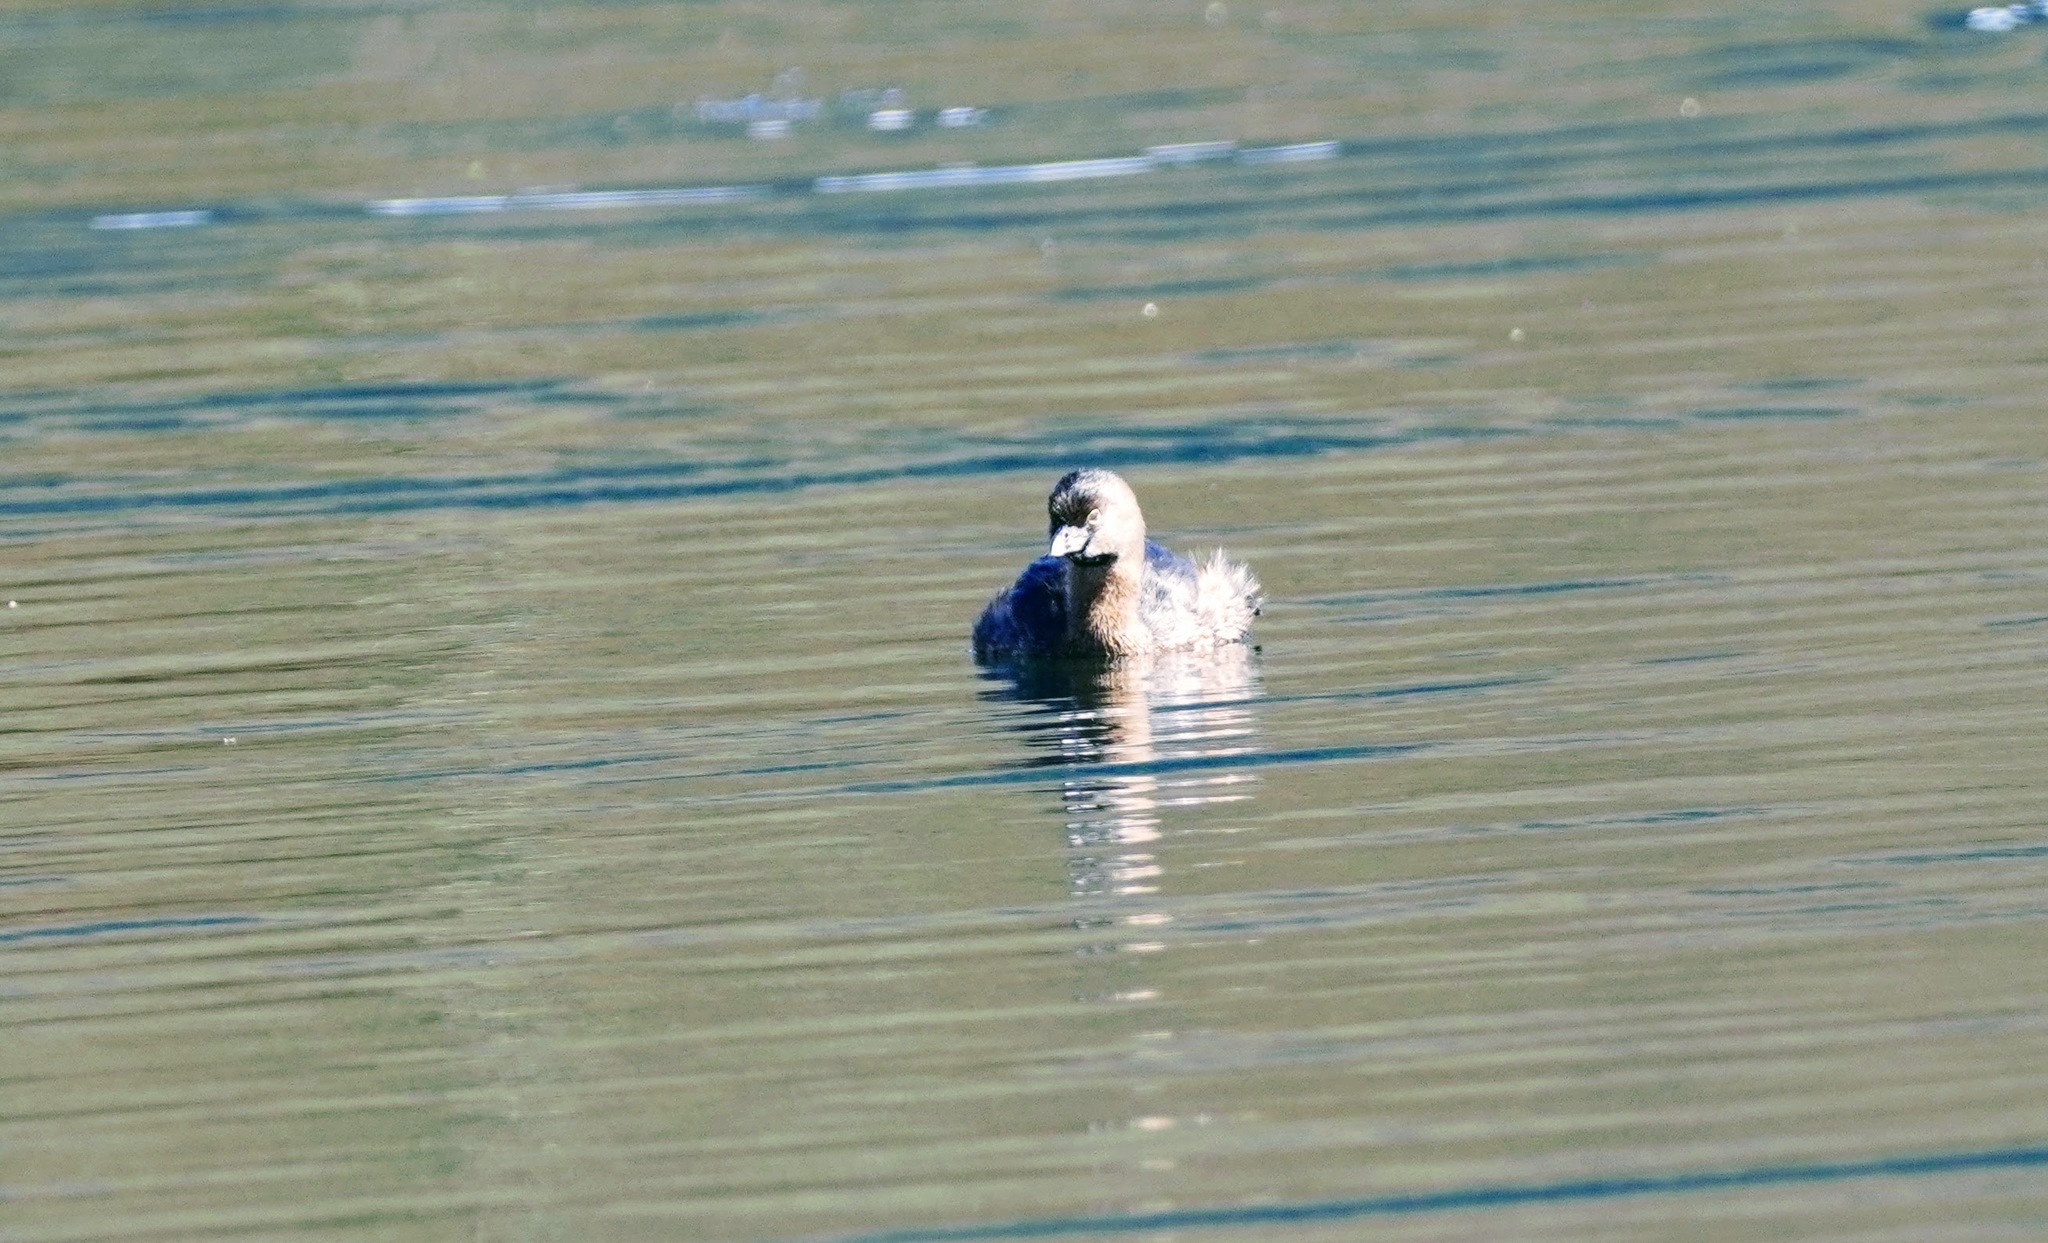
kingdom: Animalia
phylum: Chordata
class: Aves
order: Podicipediformes
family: Podicipedidae
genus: Podilymbus
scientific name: Podilymbus podiceps
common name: Pied-billed grebe
